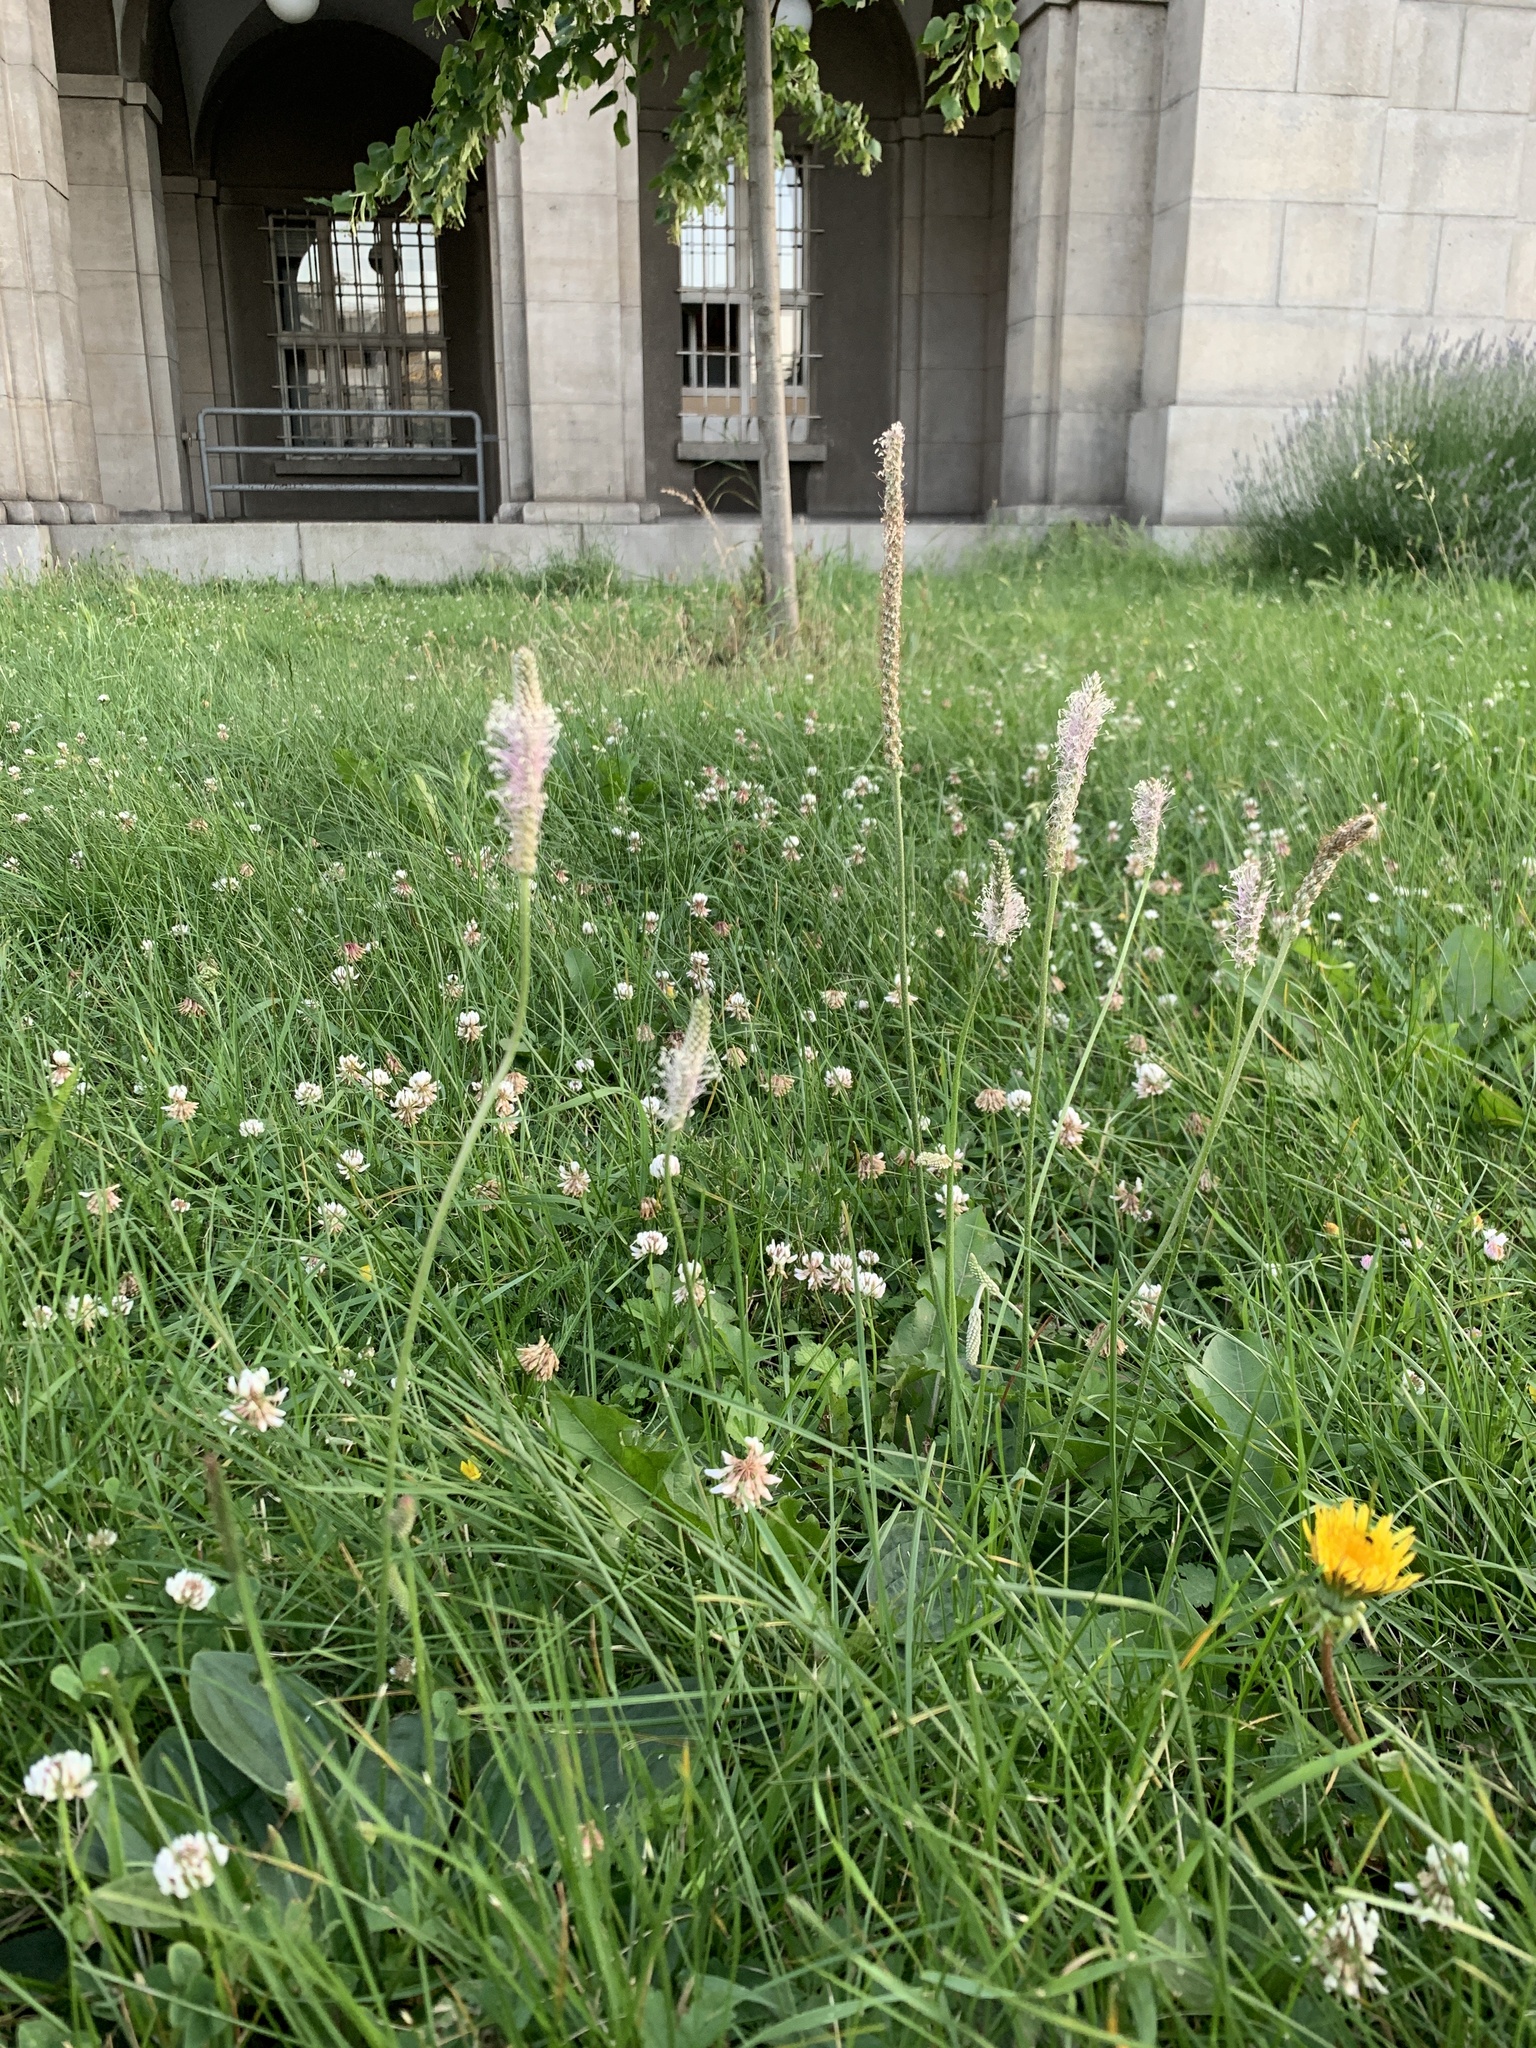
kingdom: Plantae
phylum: Tracheophyta
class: Magnoliopsida
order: Lamiales
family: Plantaginaceae
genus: Plantago
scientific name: Plantago media
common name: Hoary plantain
